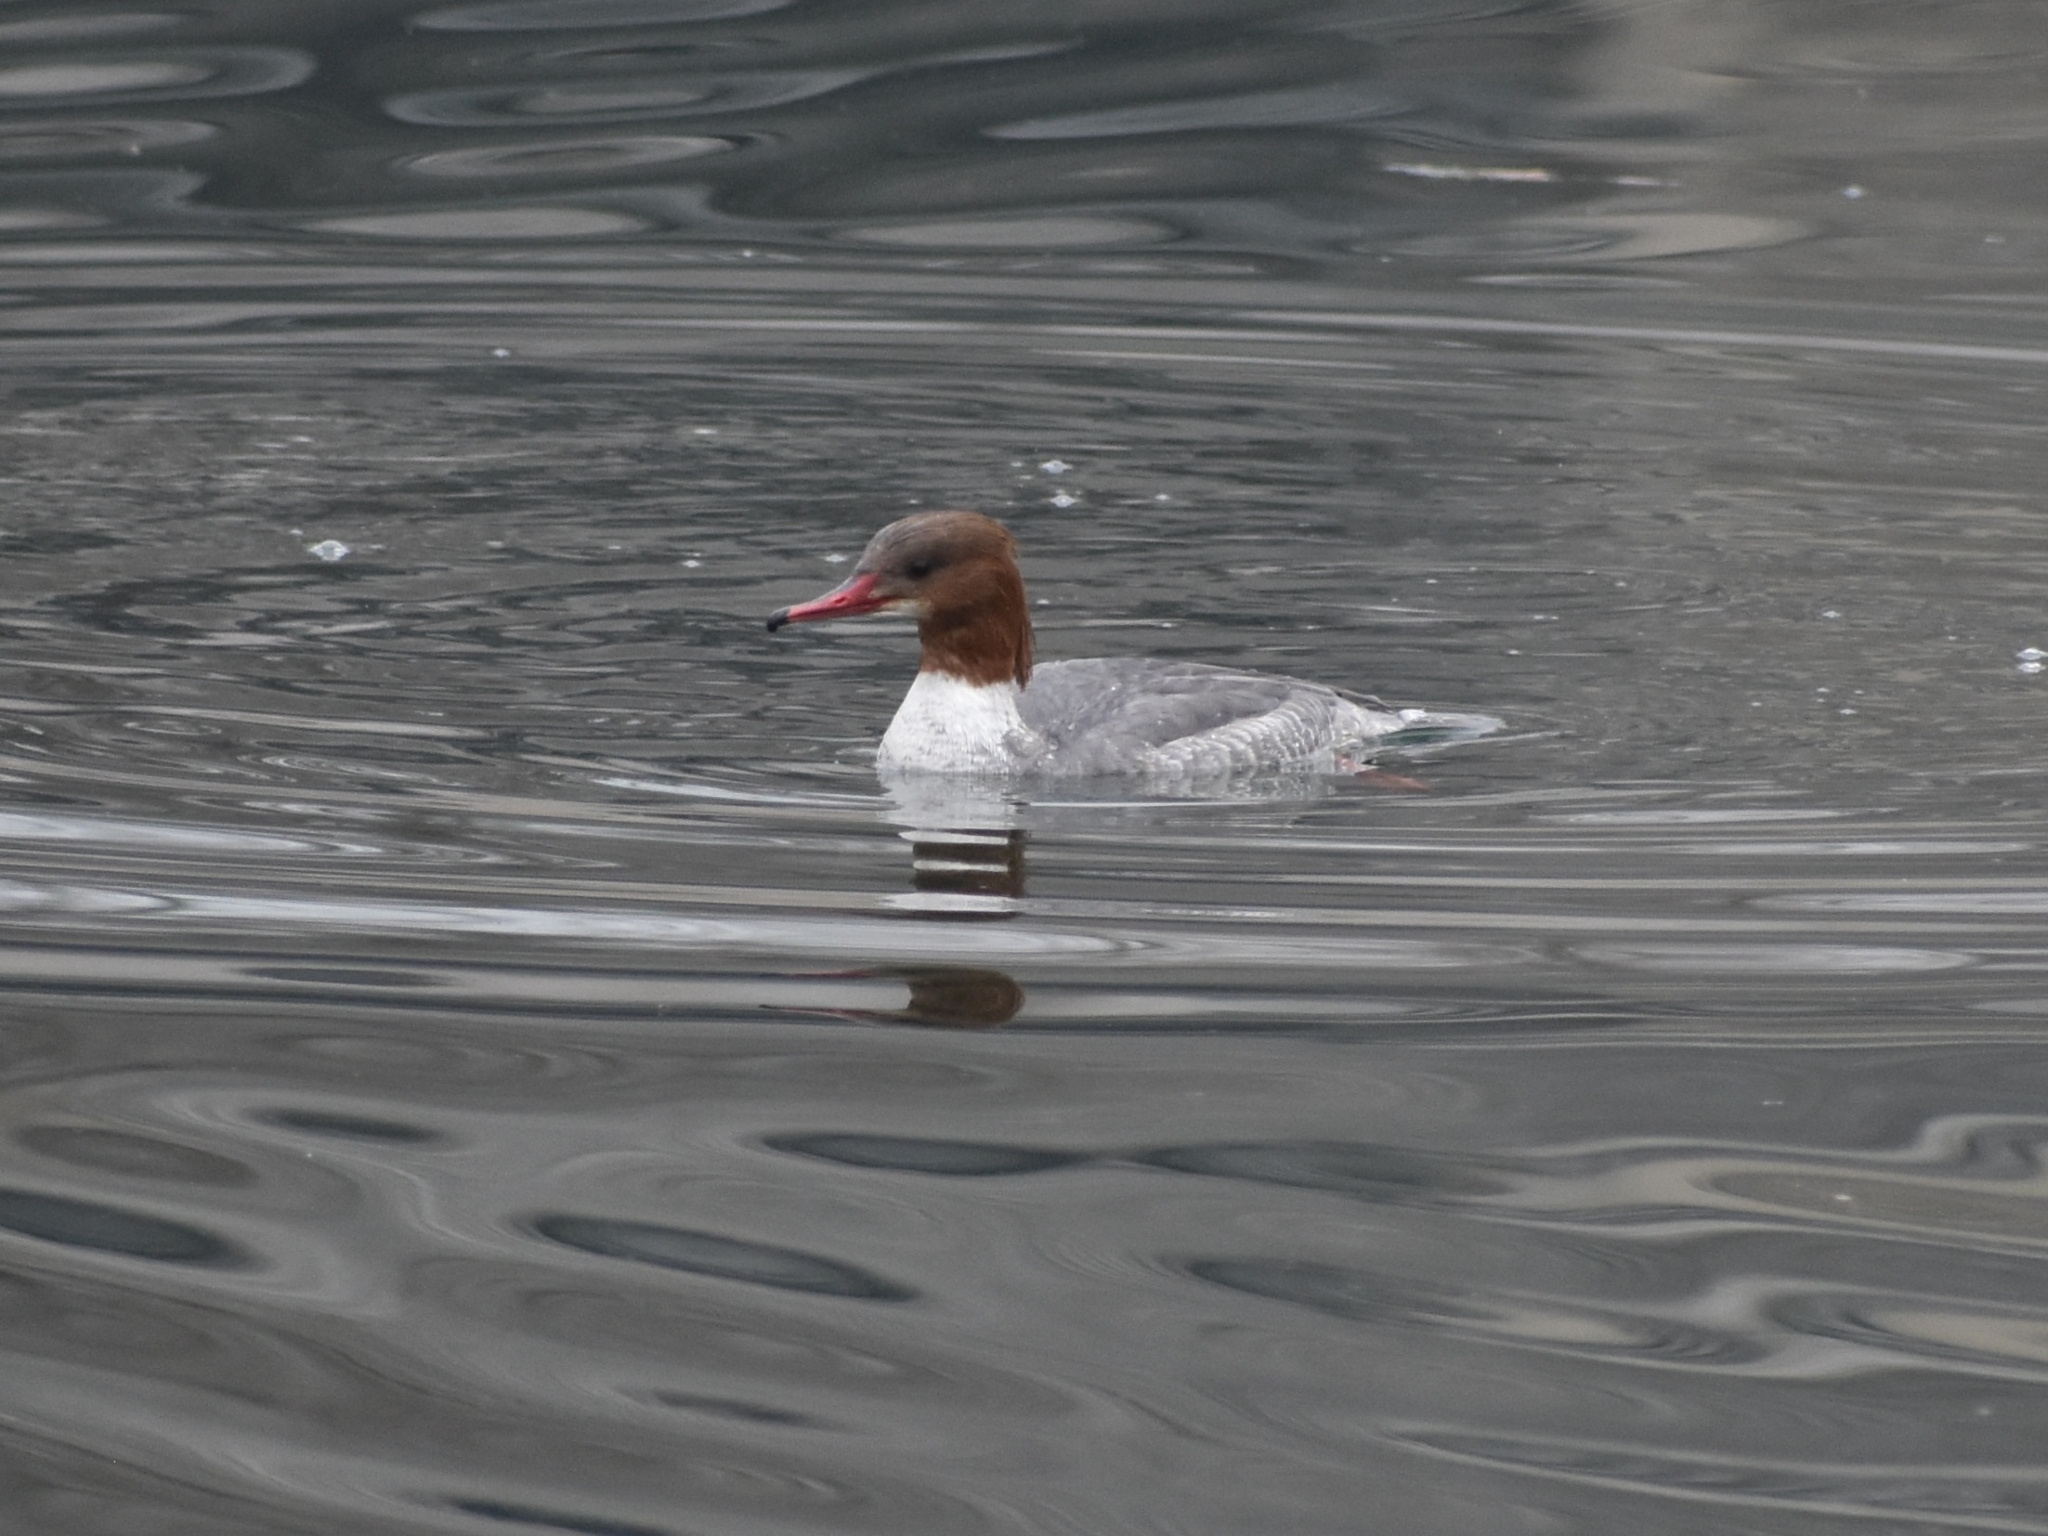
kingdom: Animalia
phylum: Chordata
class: Aves
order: Anseriformes
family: Anatidae
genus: Mergus
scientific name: Mergus merganser
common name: Common merganser
